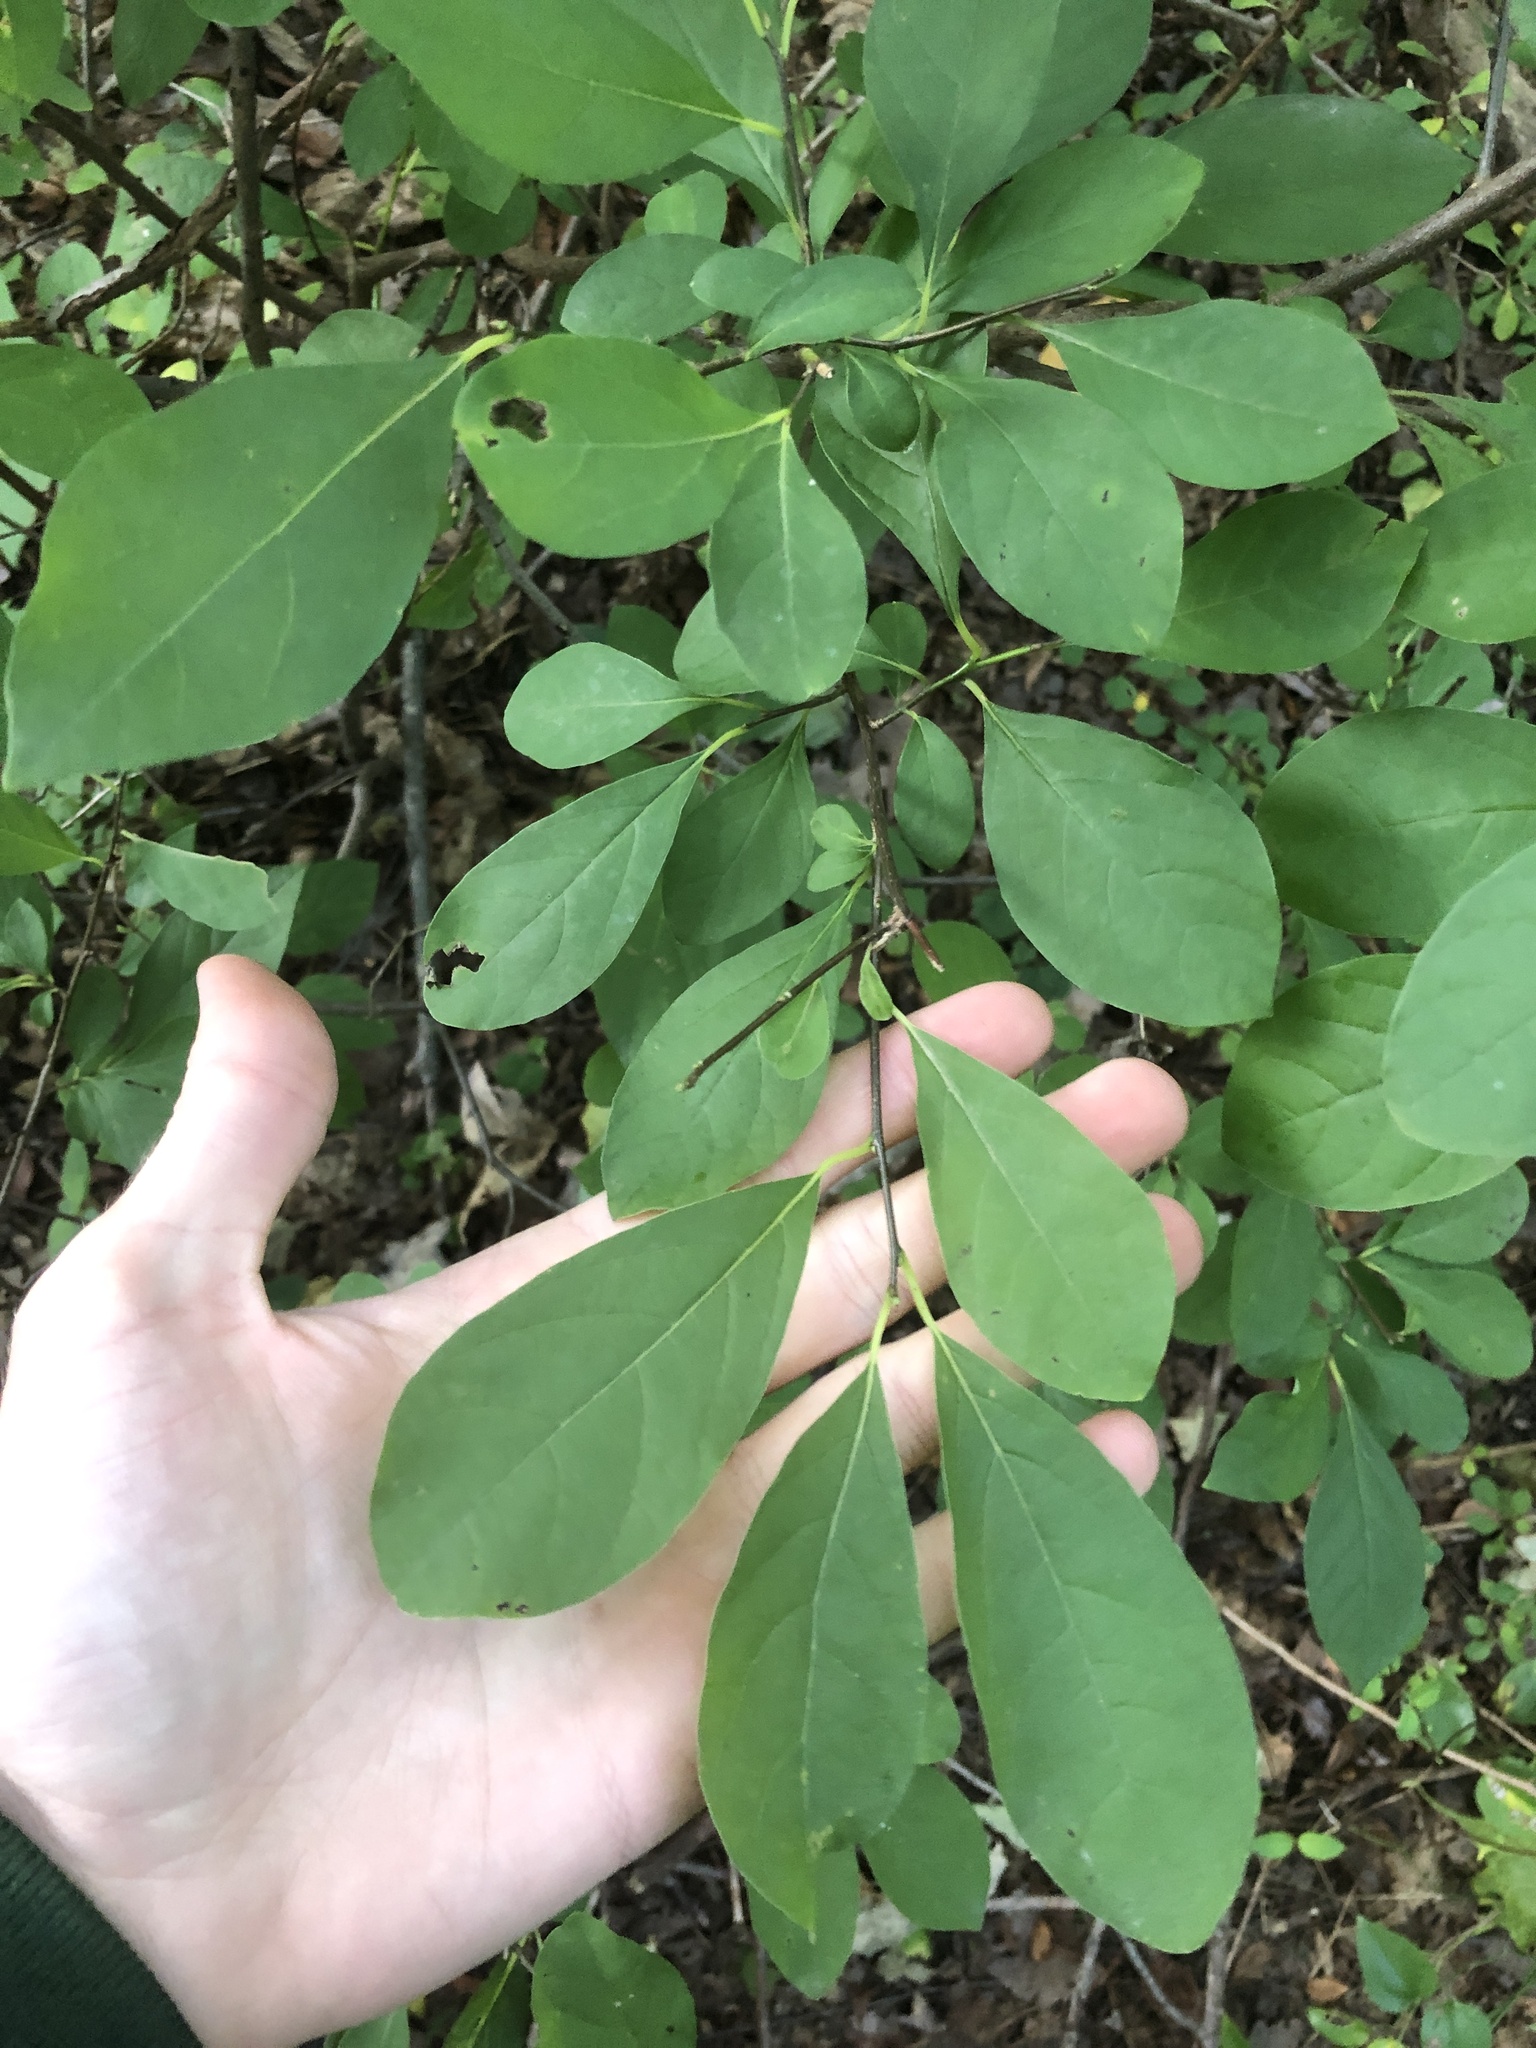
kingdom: Plantae
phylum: Tracheophyta
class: Magnoliopsida
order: Laurales
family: Lauraceae
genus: Lindera
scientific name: Lindera benzoin
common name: Spicebush
